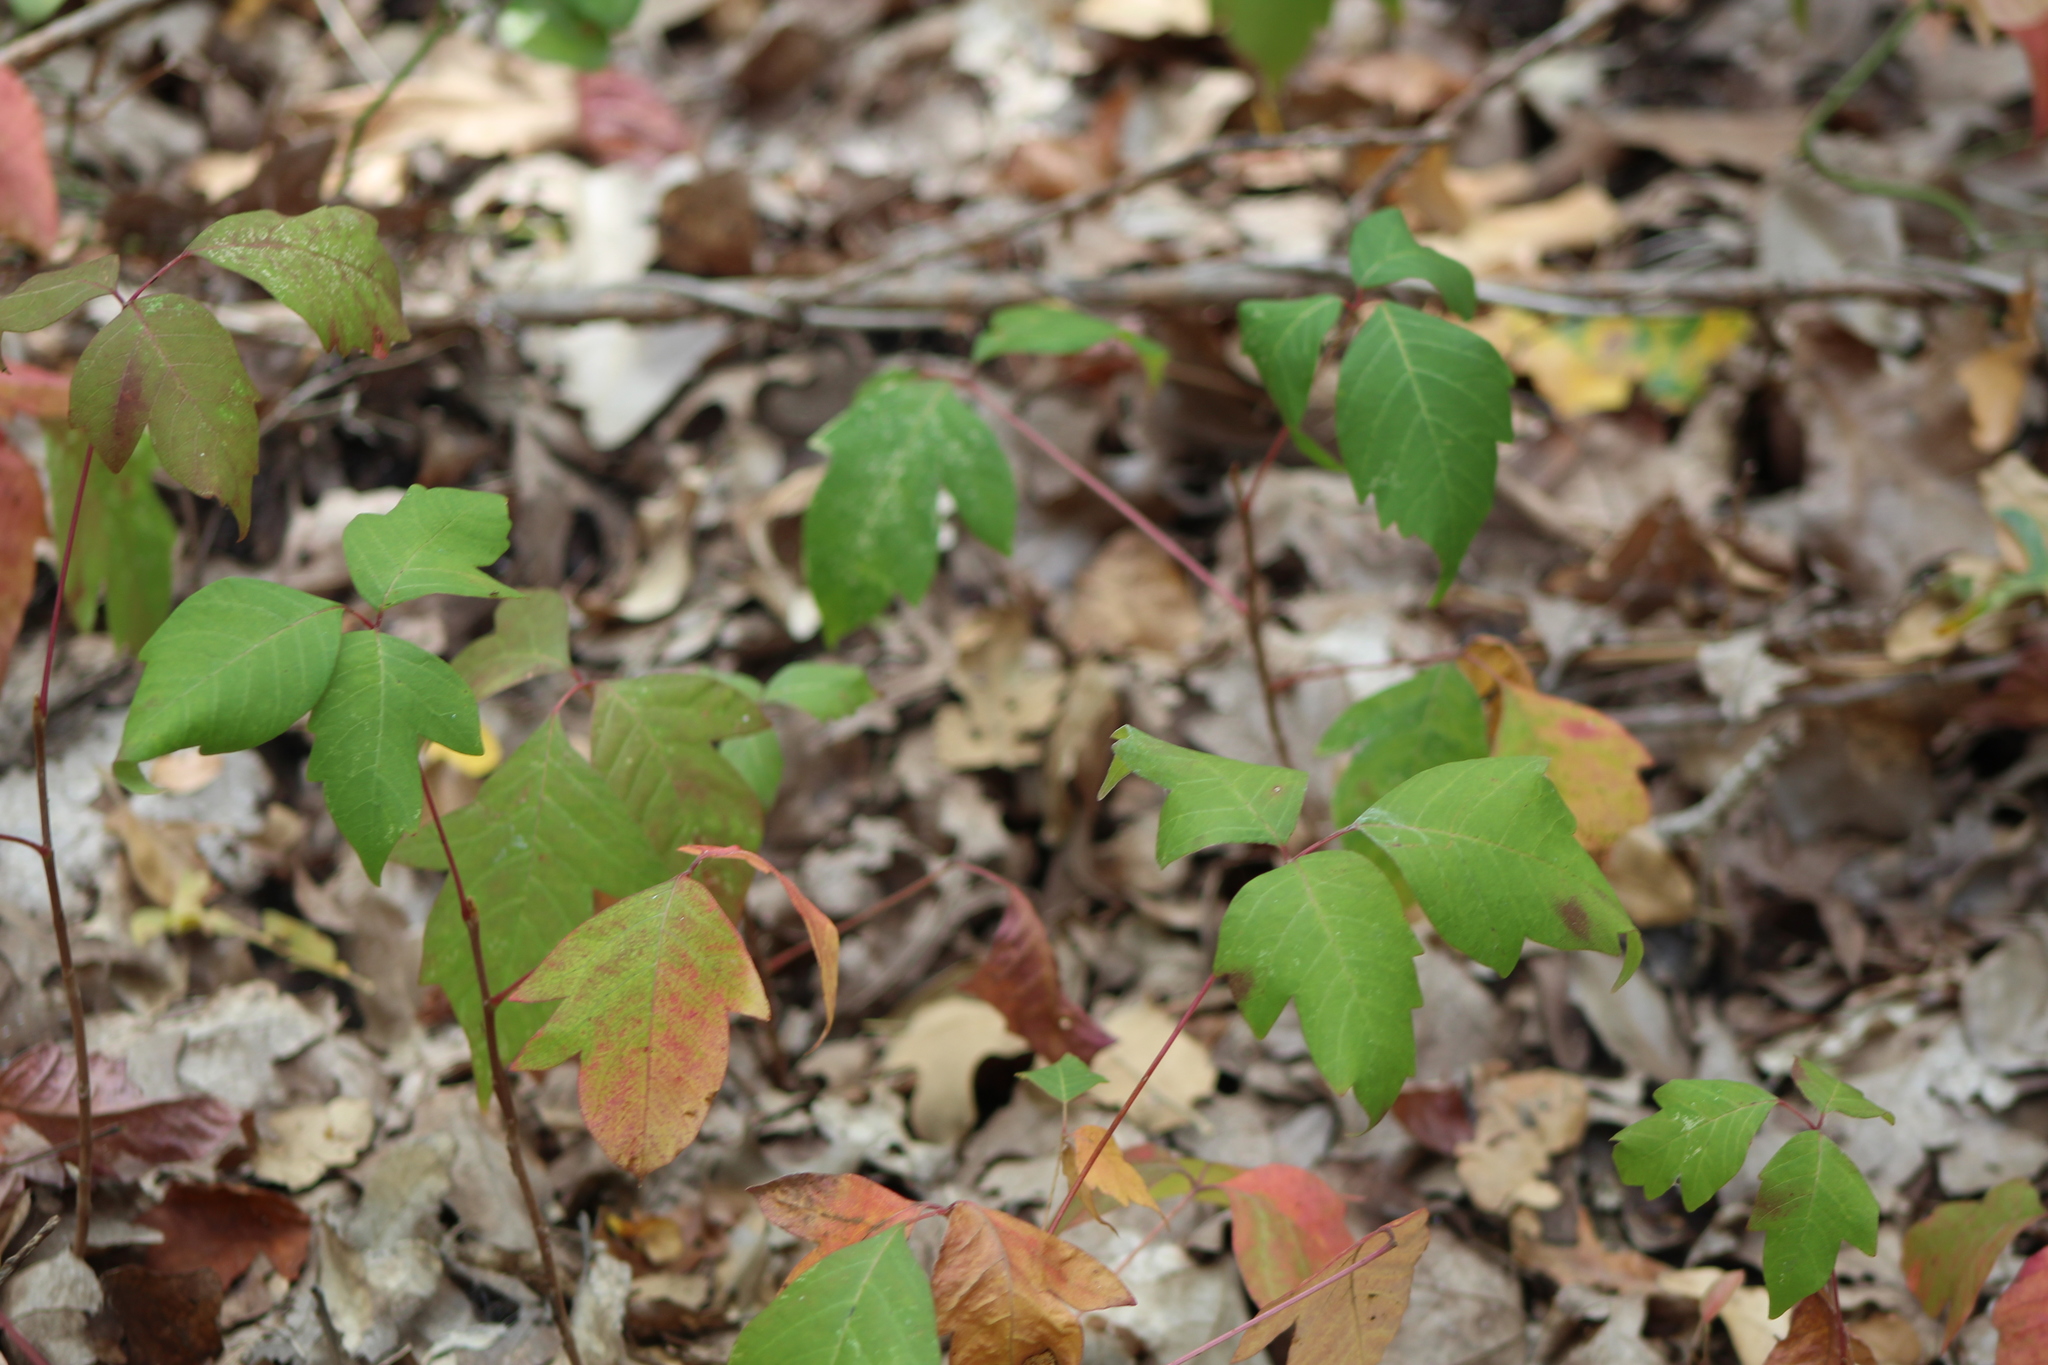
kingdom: Plantae
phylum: Tracheophyta
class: Magnoliopsida
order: Sapindales
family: Anacardiaceae
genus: Toxicodendron
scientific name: Toxicodendron radicans
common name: Poison ivy
